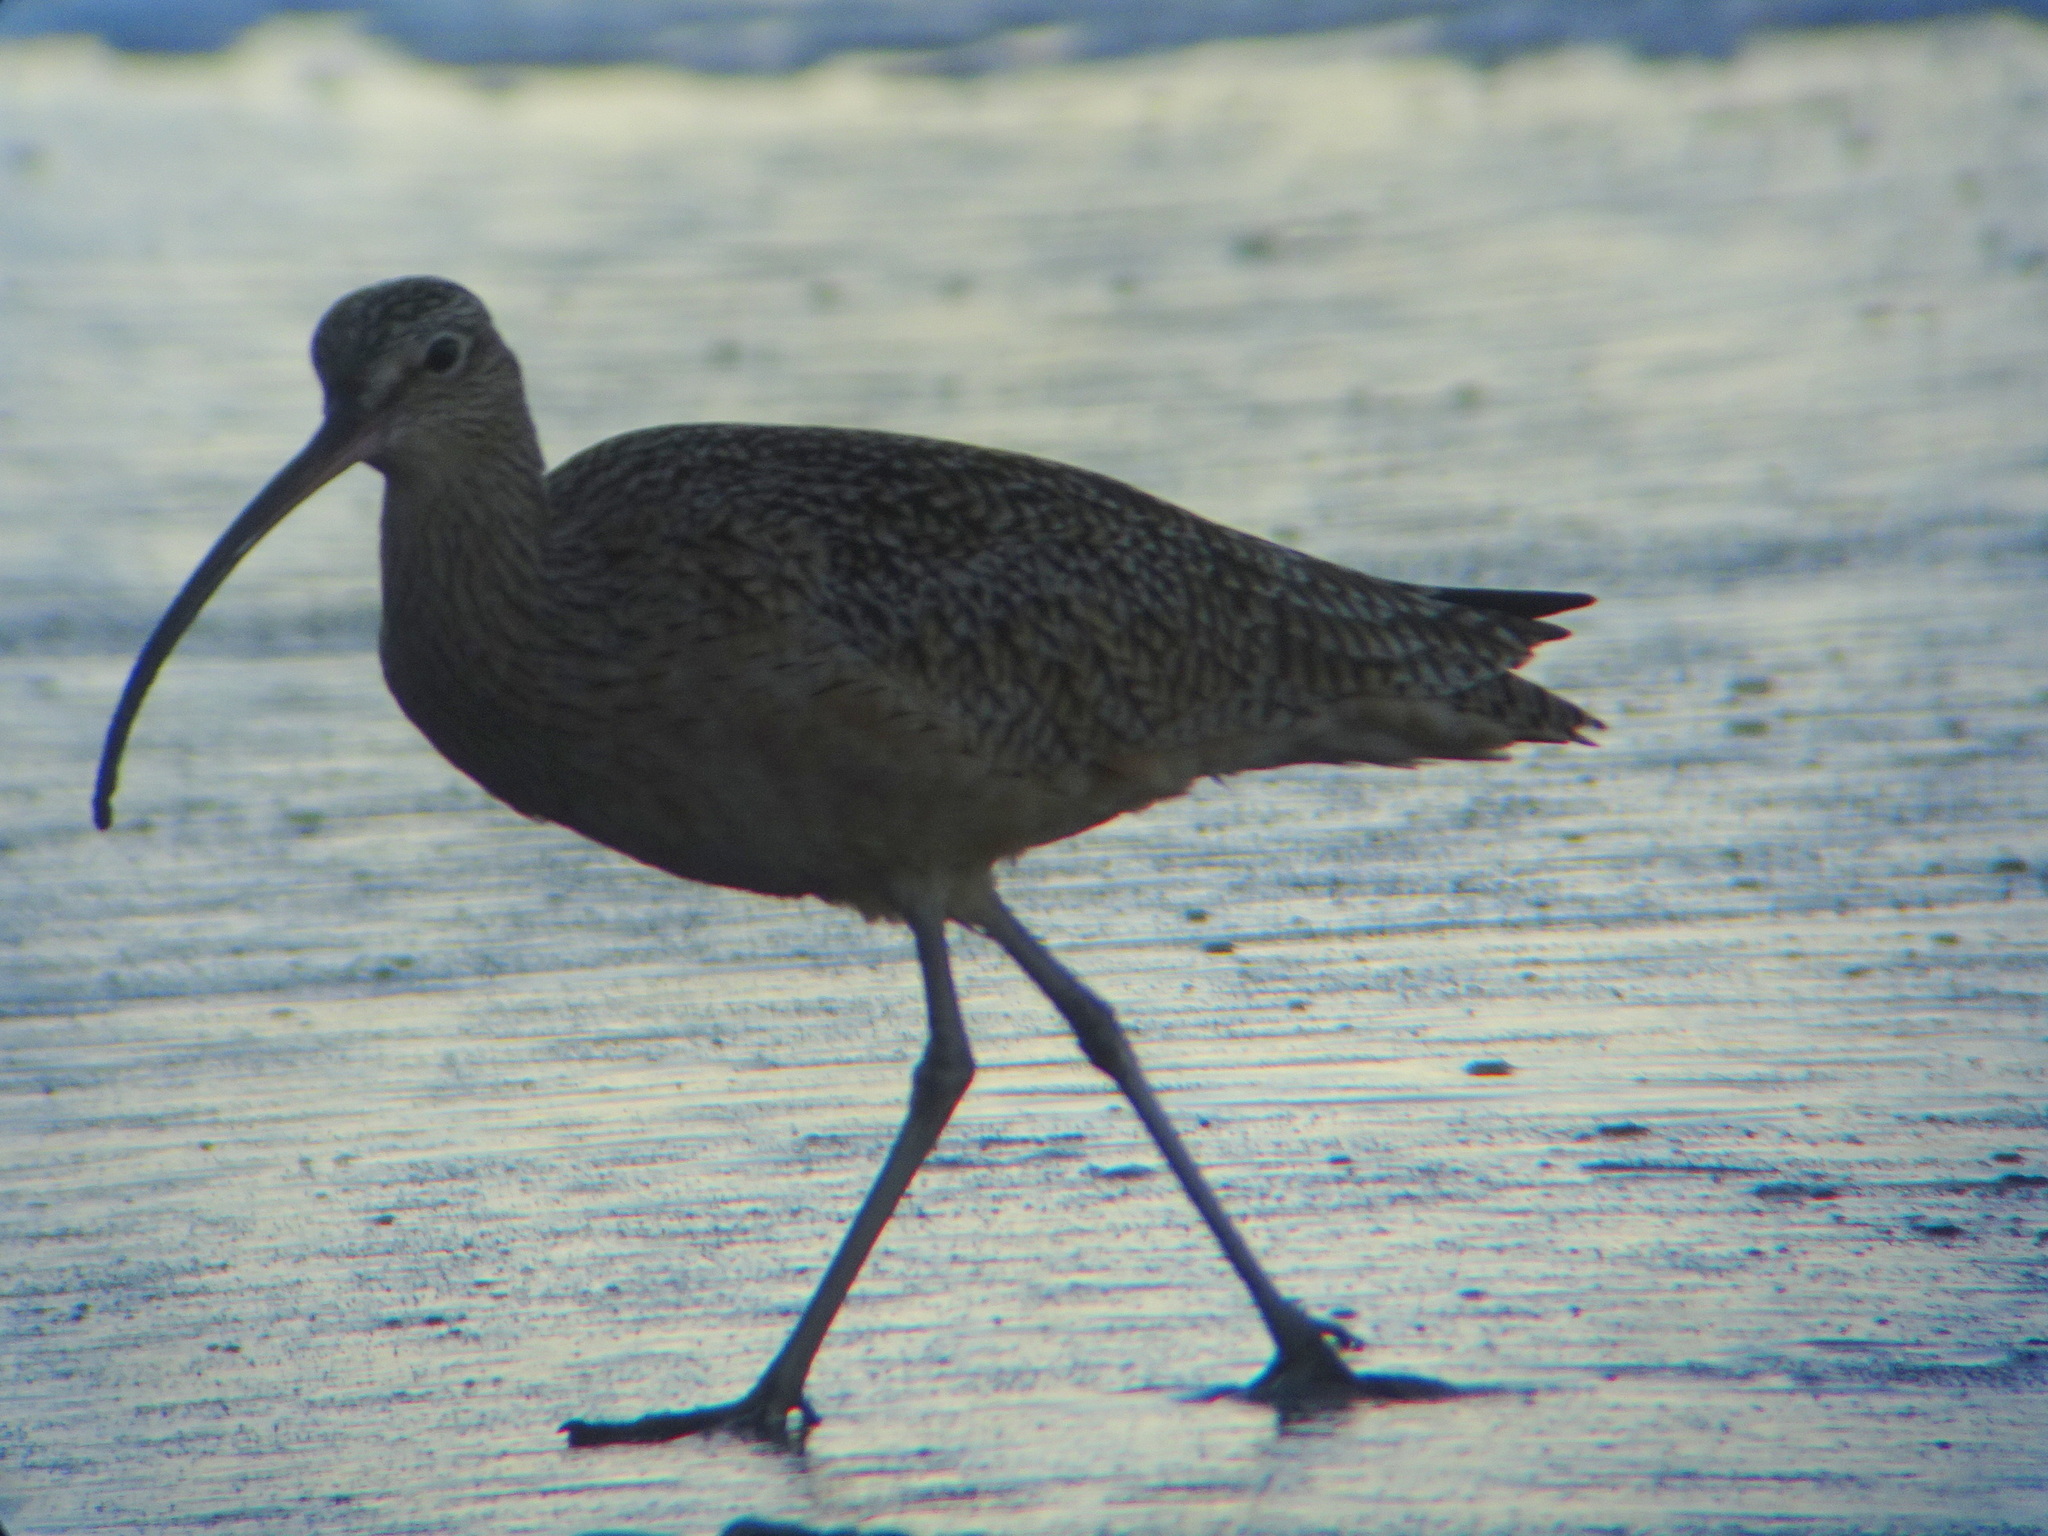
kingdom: Animalia
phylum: Chordata
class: Aves
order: Charadriiformes
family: Scolopacidae
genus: Numenius
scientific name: Numenius americanus
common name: Long-billed curlew
